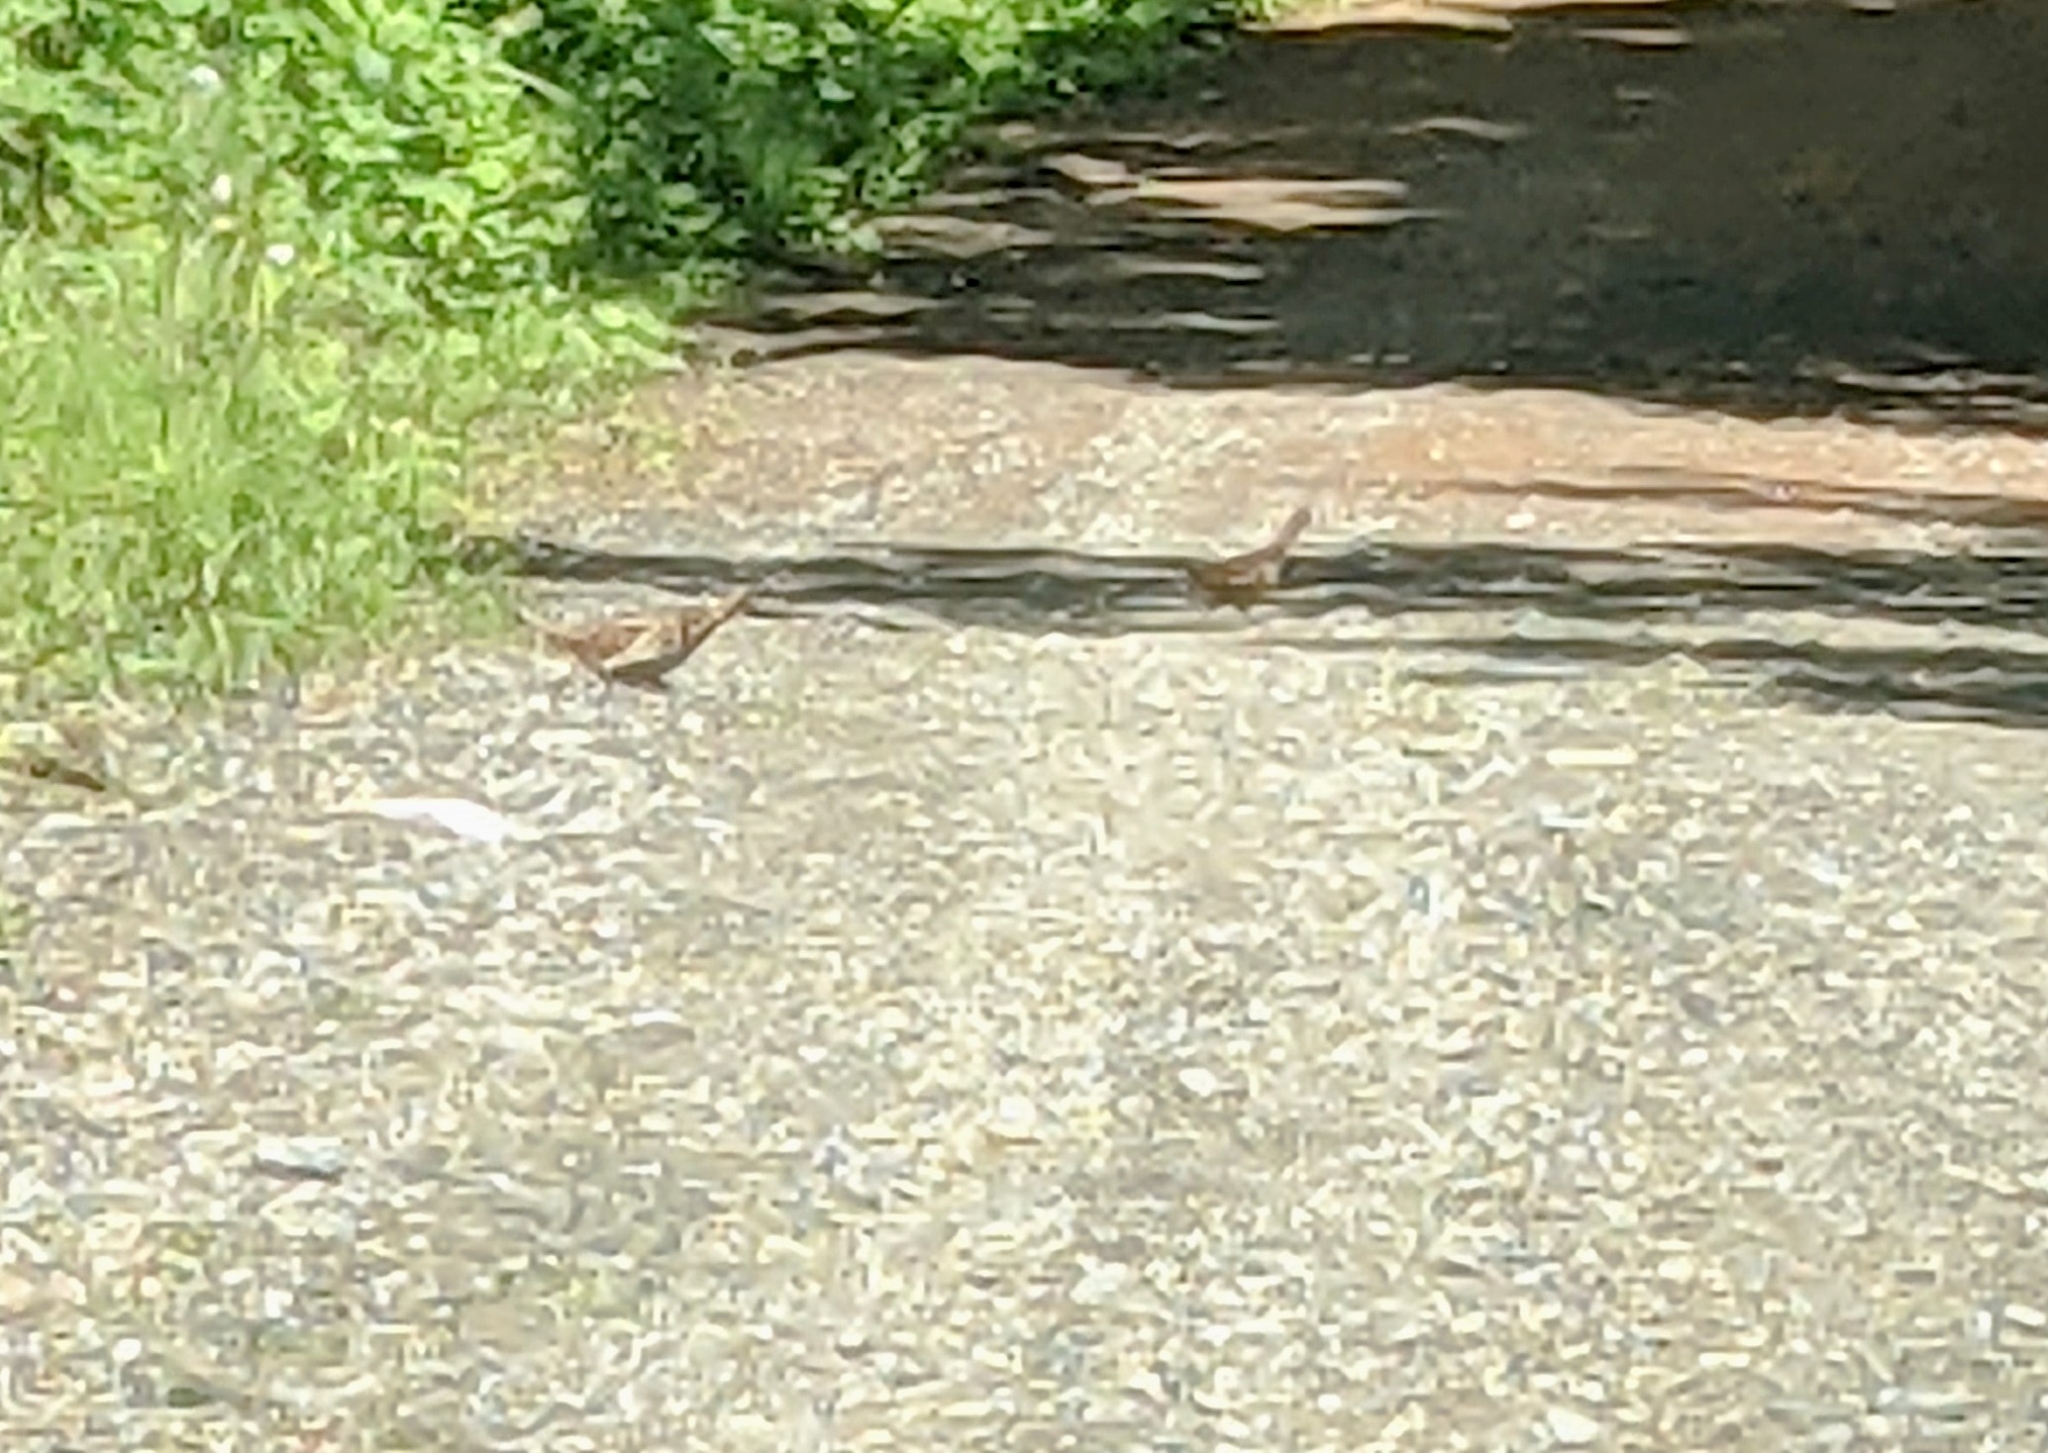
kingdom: Animalia
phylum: Chordata
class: Aves
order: Galliformes
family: Phasianidae
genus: Bonasa
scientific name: Bonasa umbellus
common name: Ruffed grouse
